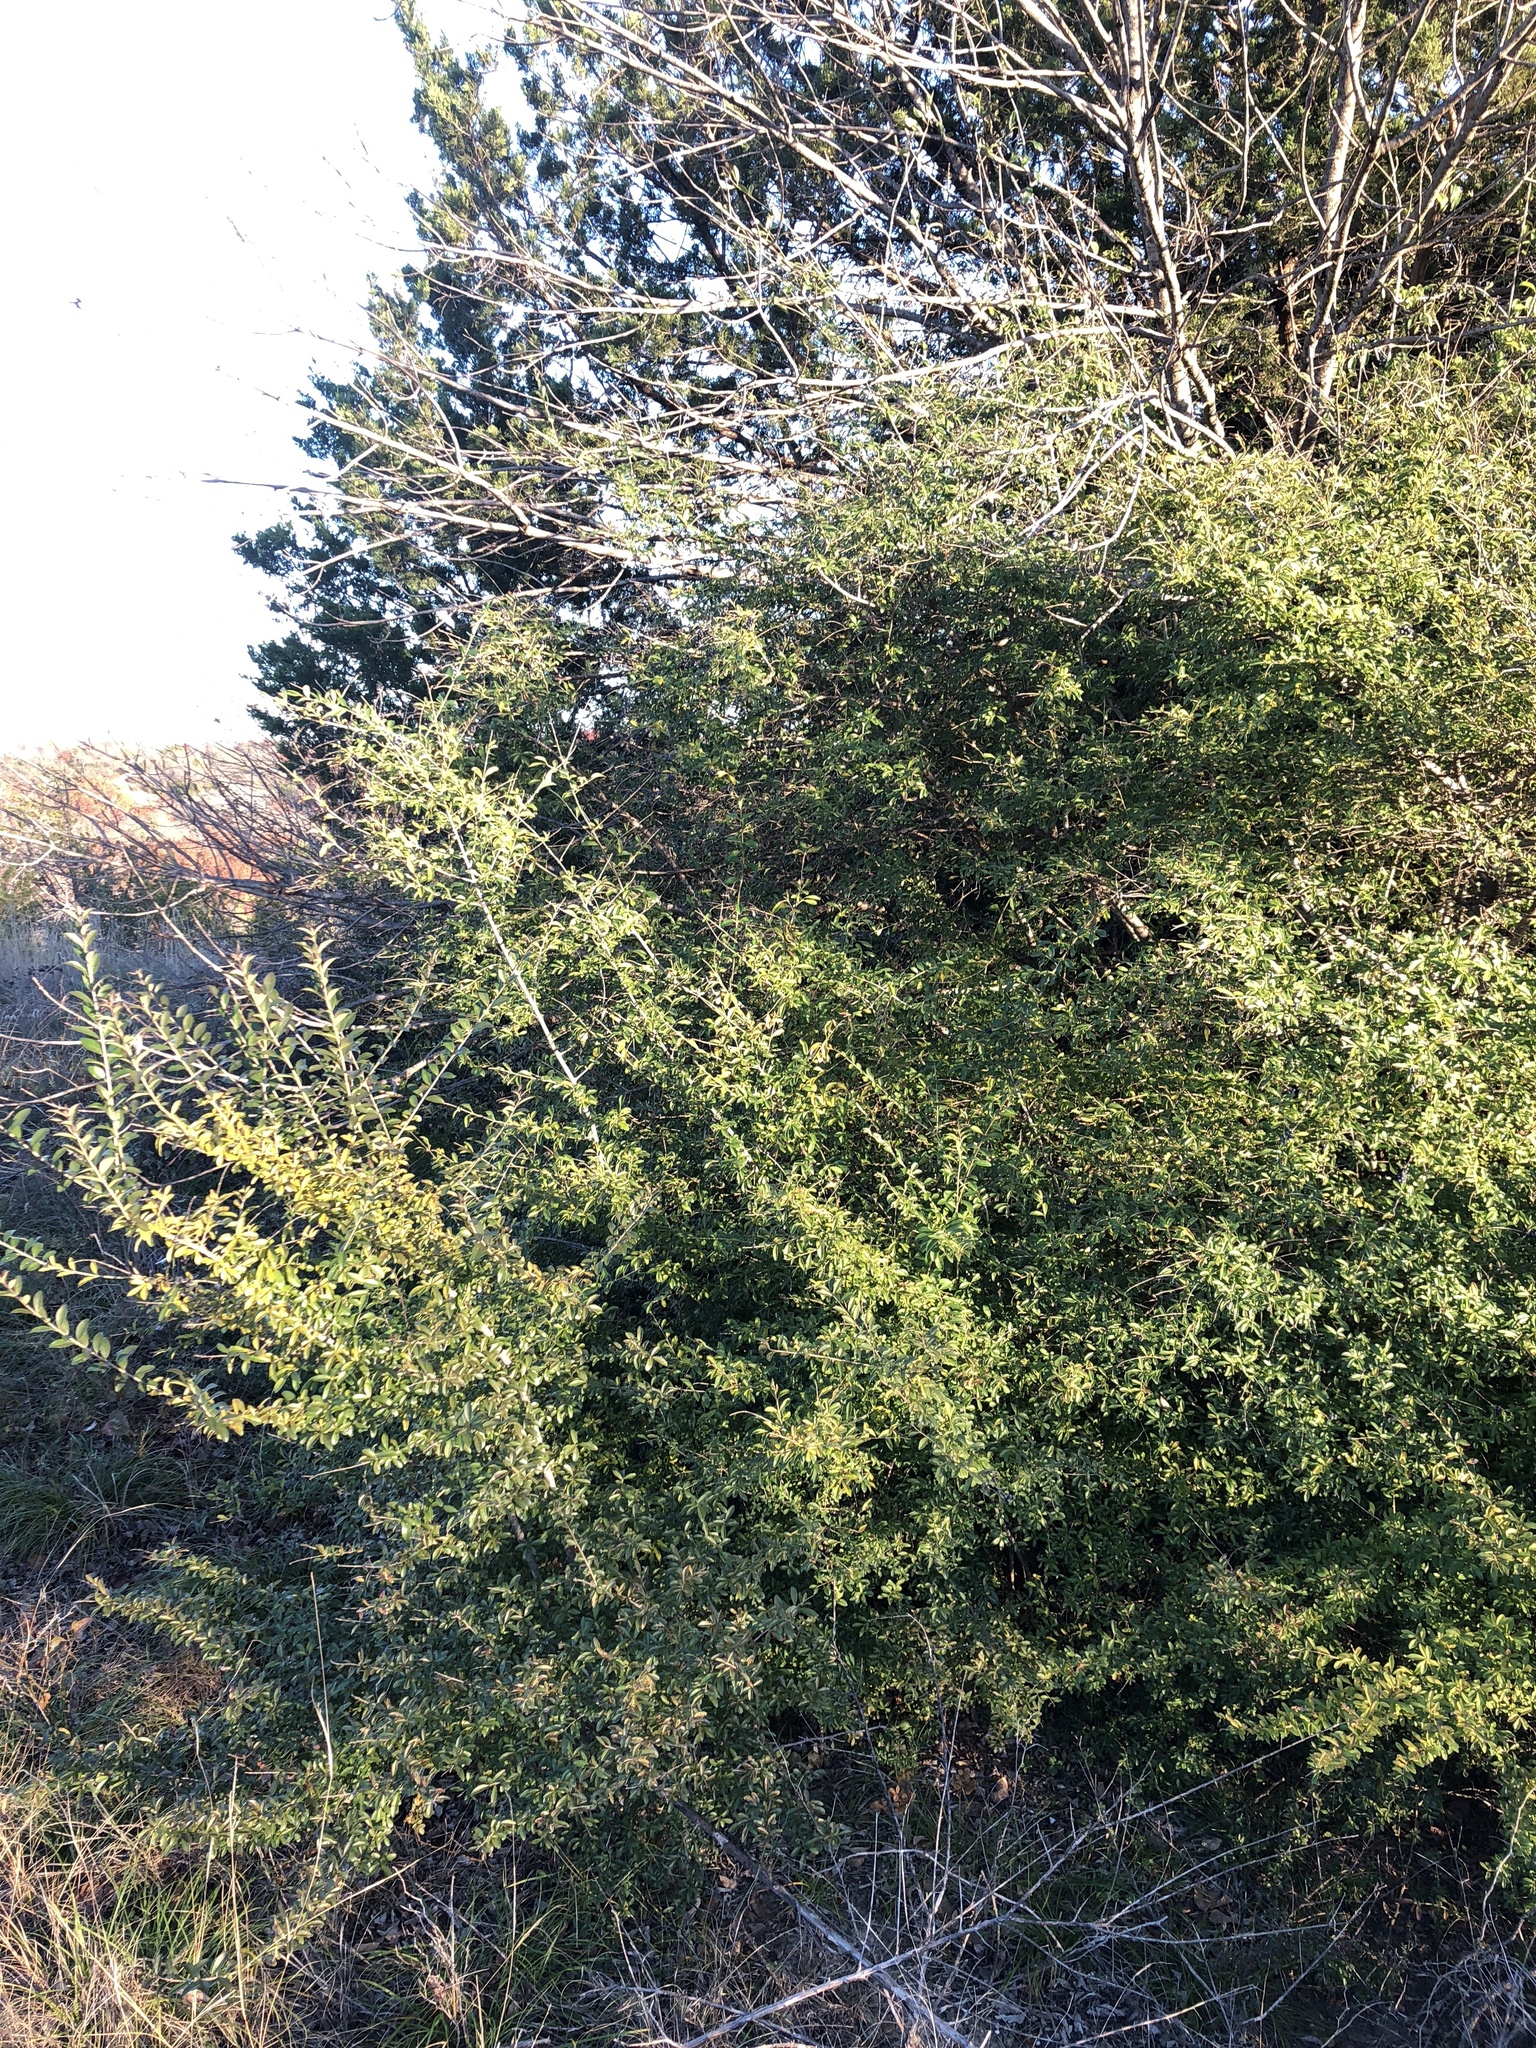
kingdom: Plantae
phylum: Tracheophyta
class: Magnoliopsida
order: Lamiales
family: Oleaceae
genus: Ligustrum
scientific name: Ligustrum quihoui
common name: Waxyleaf privet
